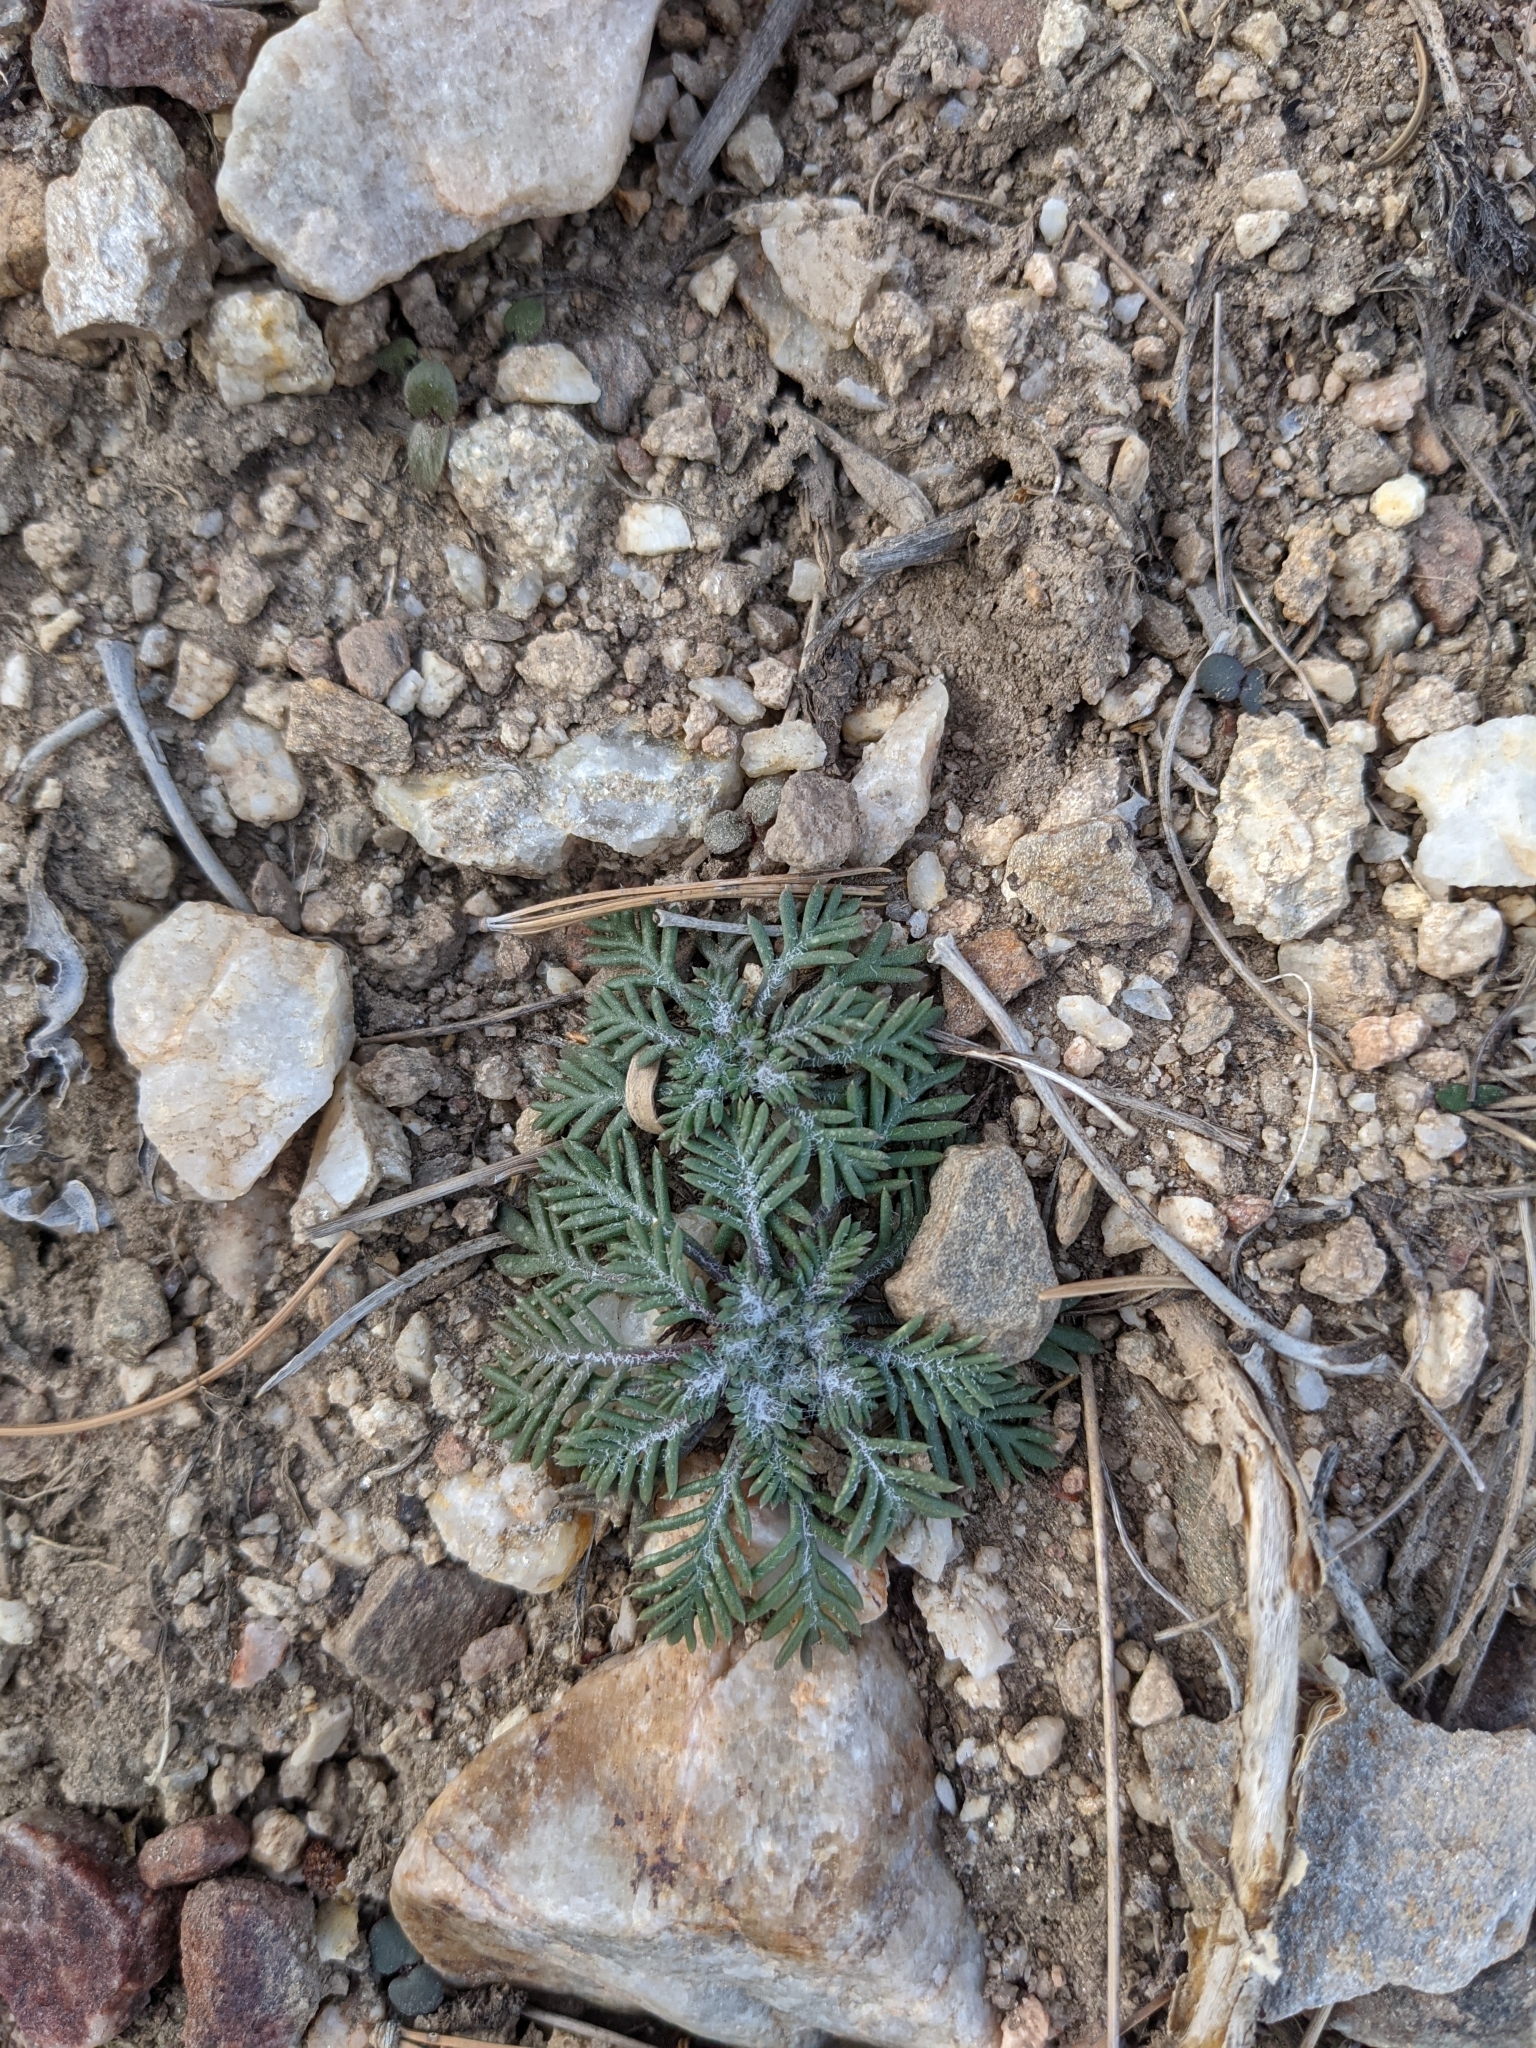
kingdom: Plantae
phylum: Tracheophyta
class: Magnoliopsida
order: Ericales
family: Polemoniaceae
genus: Ipomopsis
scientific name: Ipomopsis aggregata
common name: Scarlet gilia
